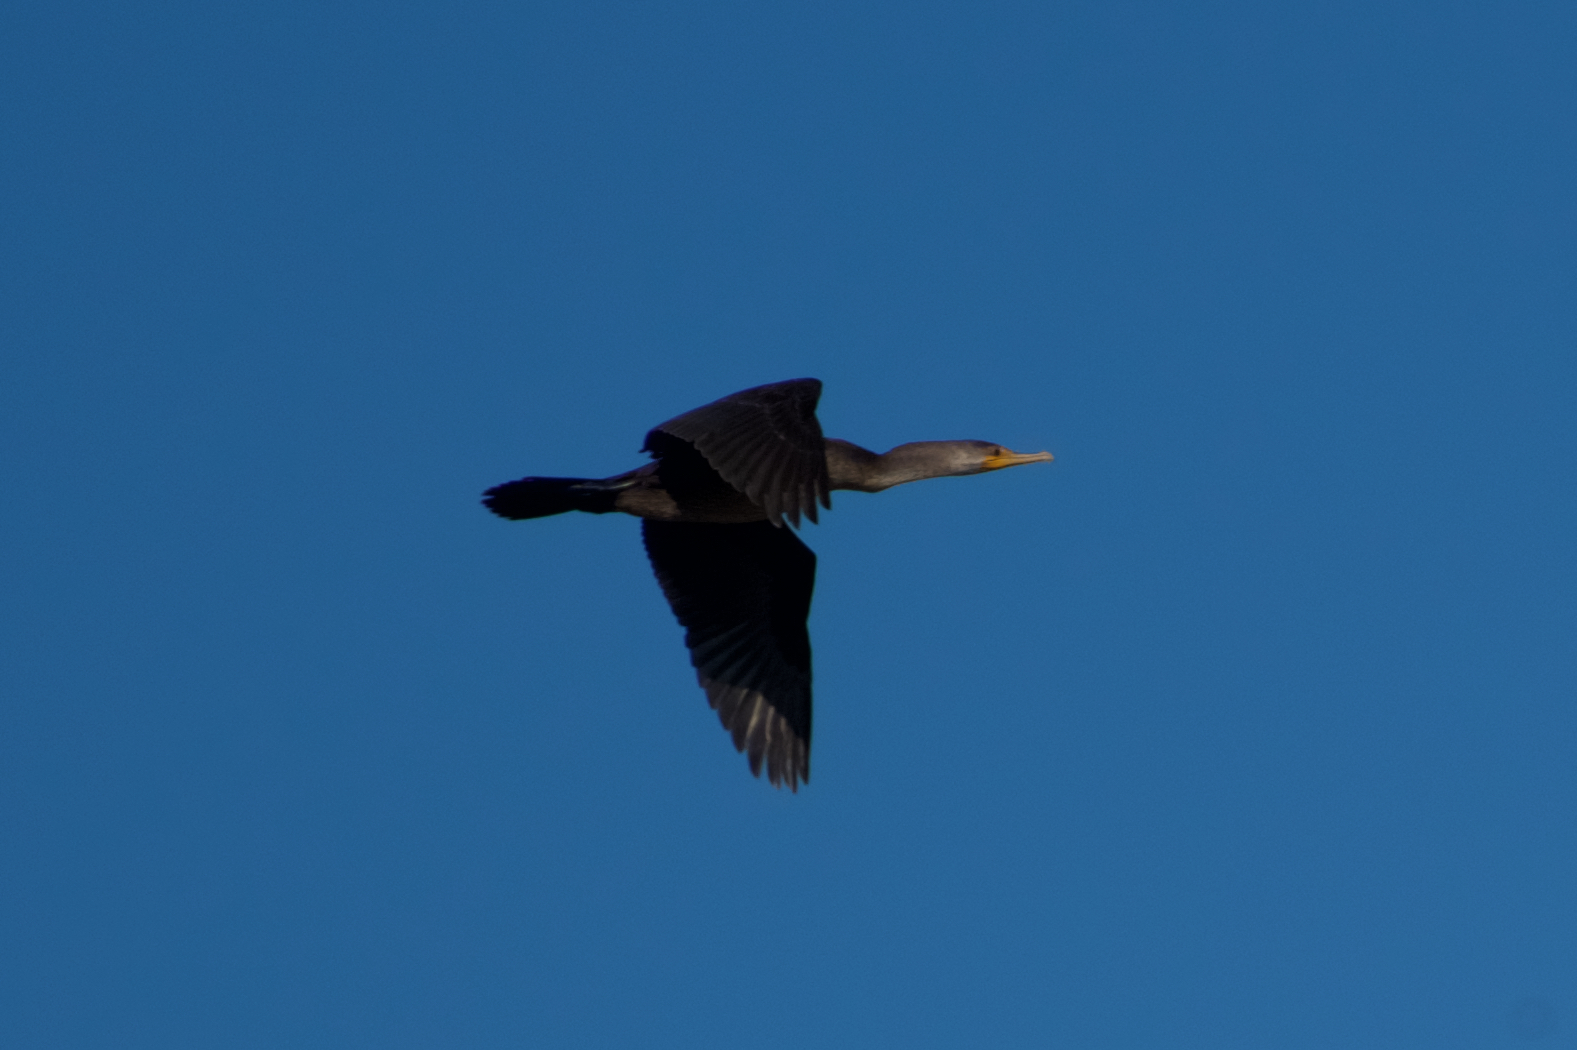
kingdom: Animalia
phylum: Chordata
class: Aves
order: Suliformes
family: Phalacrocoracidae
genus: Phalacrocorax
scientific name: Phalacrocorax auritus
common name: Double-crested cormorant
